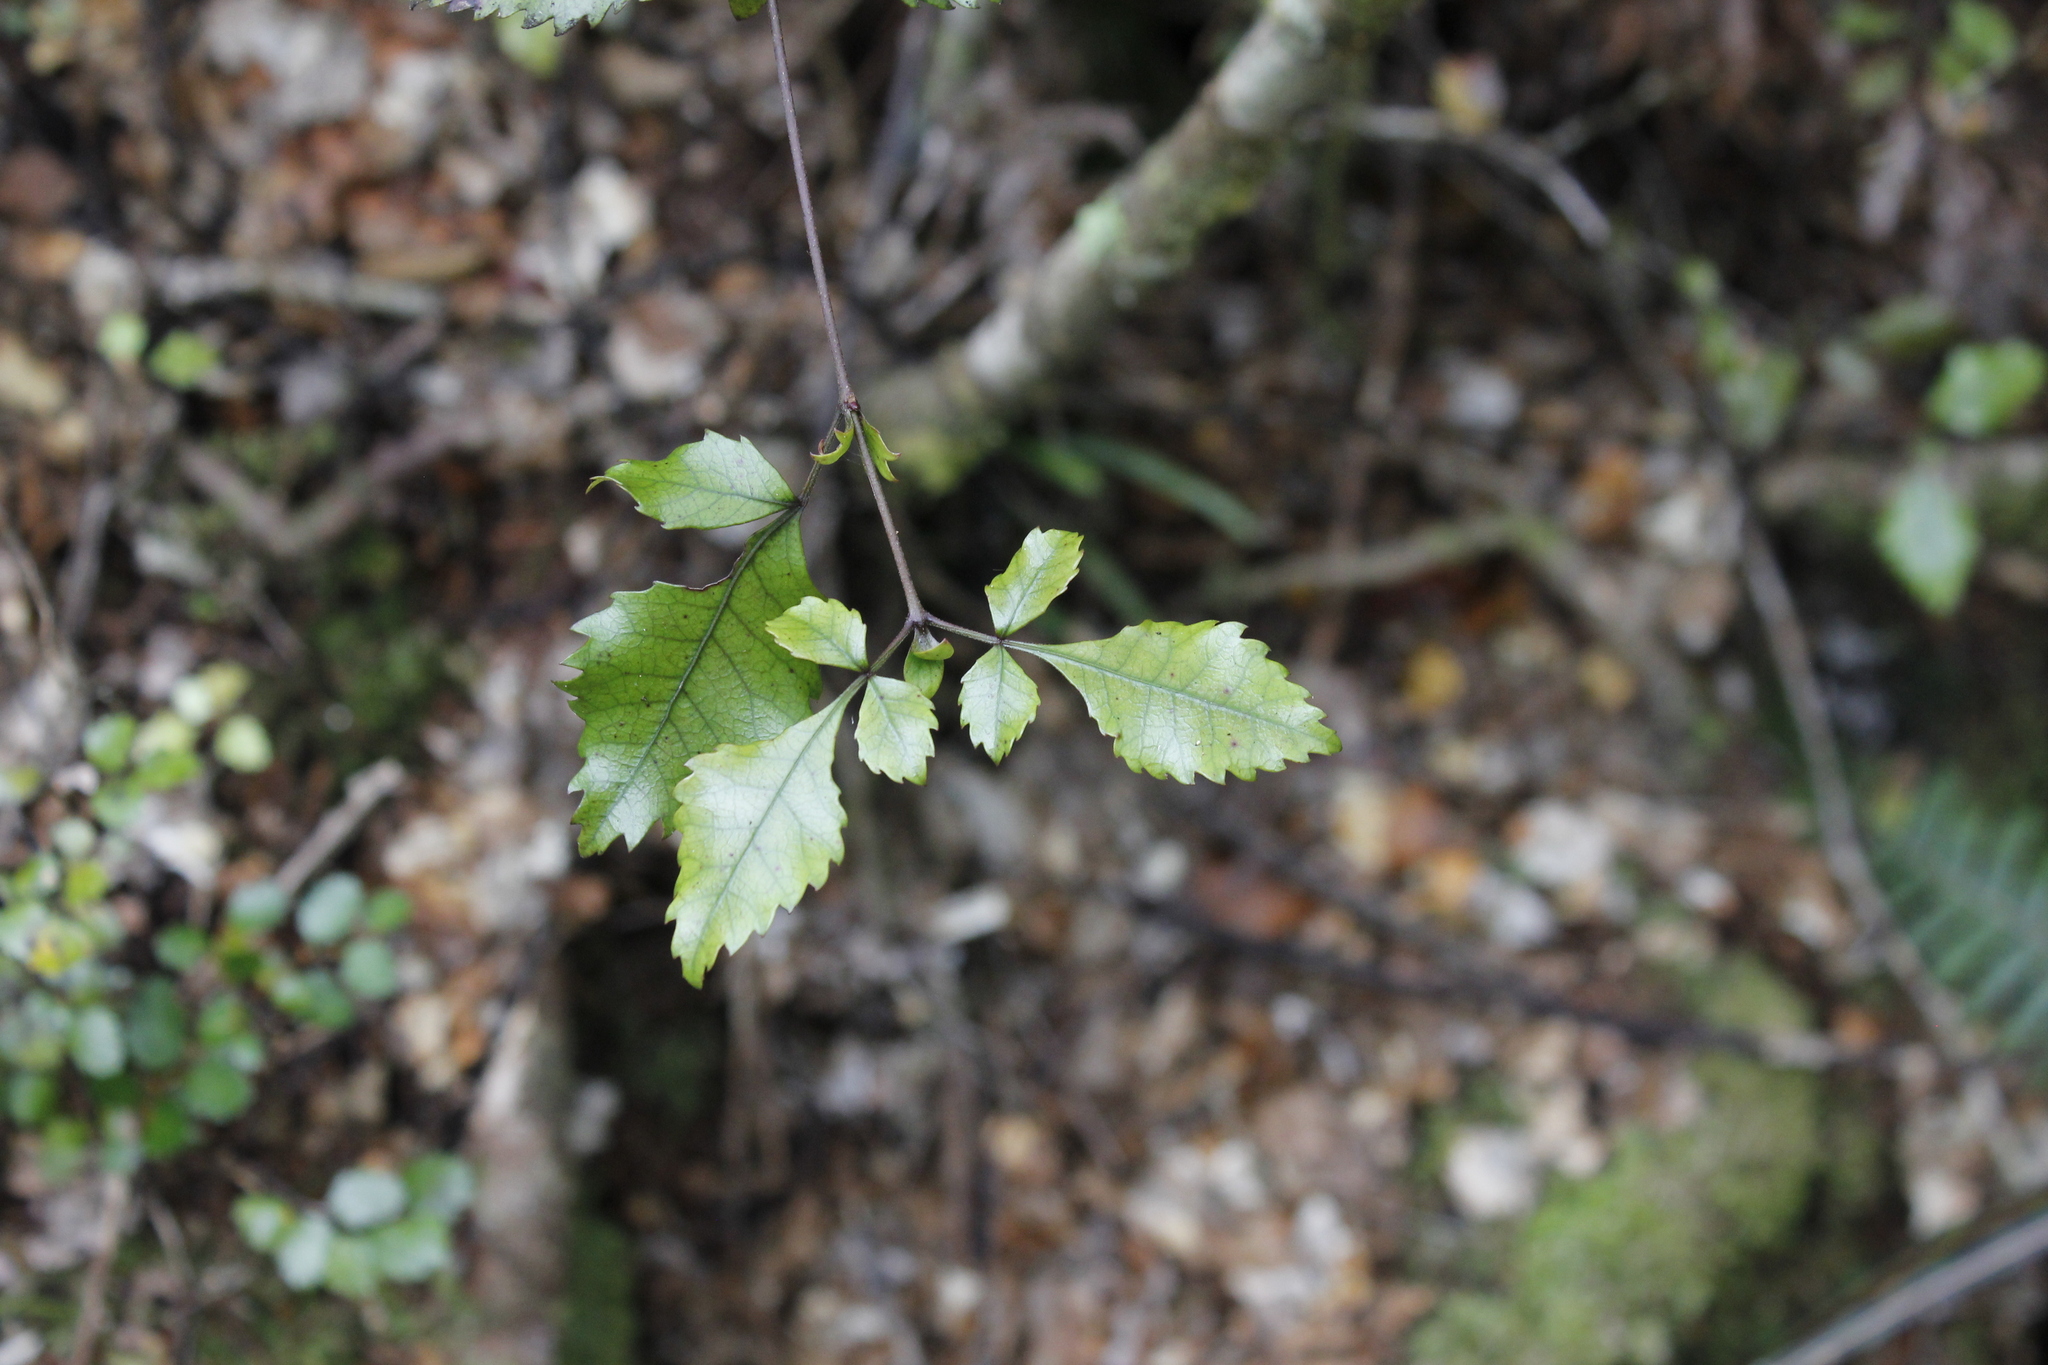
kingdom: Plantae
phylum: Tracheophyta
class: Magnoliopsida
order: Oxalidales
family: Cunoniaceae
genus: Pterophylla
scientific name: Pterophylla racemosa
